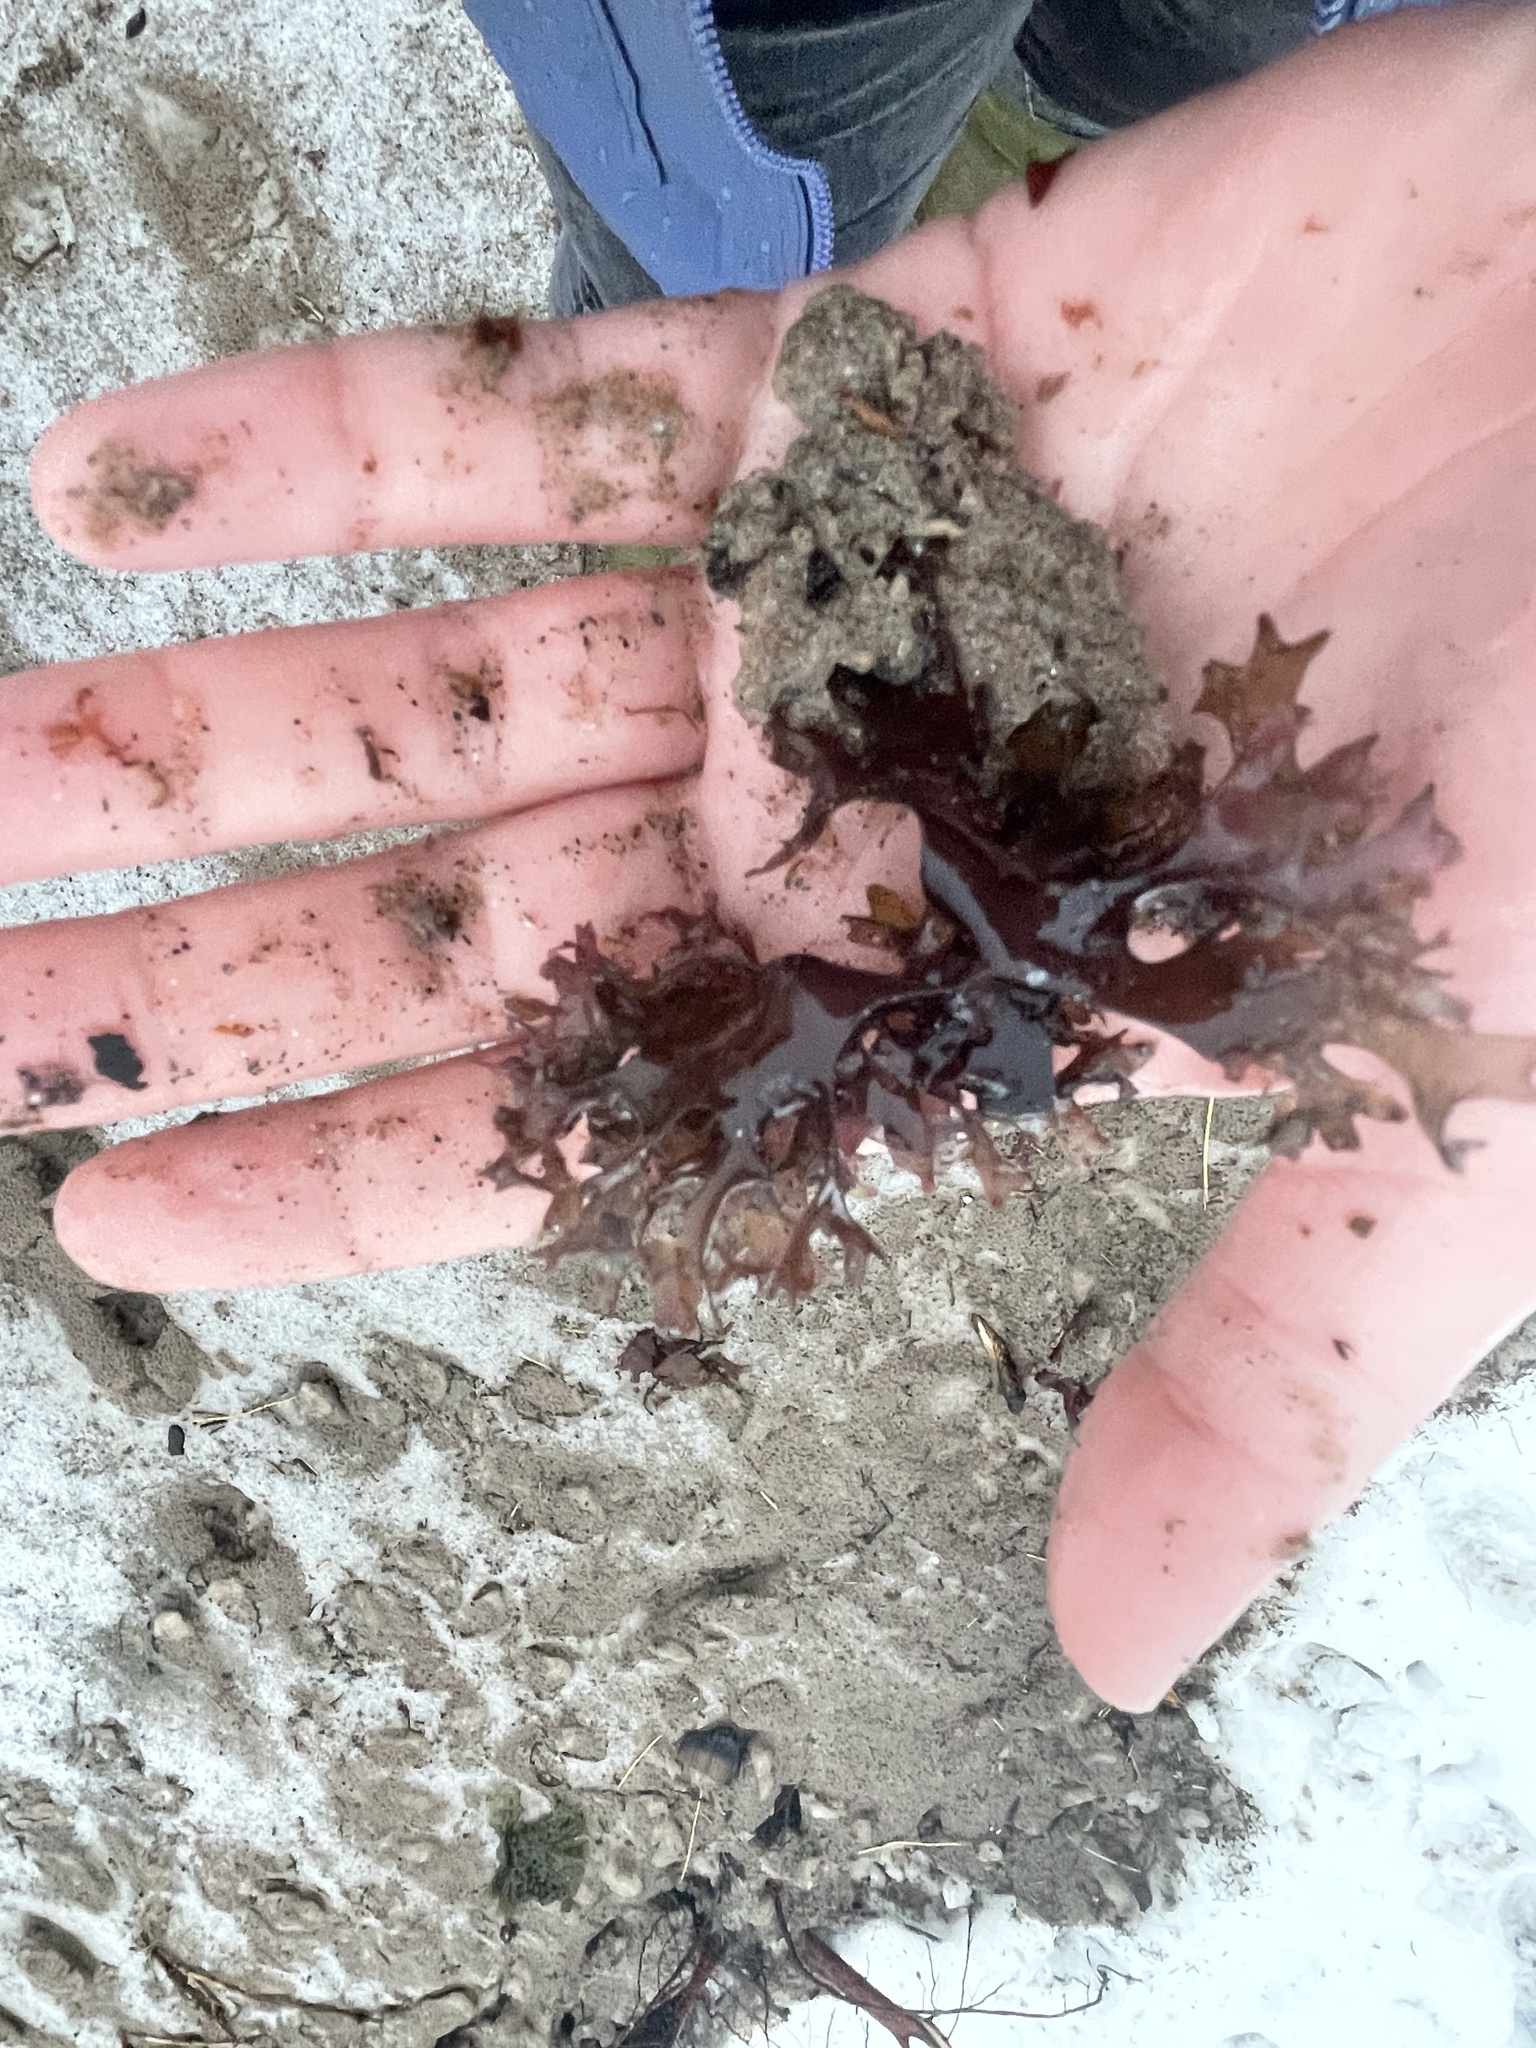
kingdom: Plantae
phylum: Rhodophyta
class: Florideophyceae
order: Gigartinales
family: Gigartinaceae
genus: Chondrus
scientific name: Chondrus crispus
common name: Carrageen
